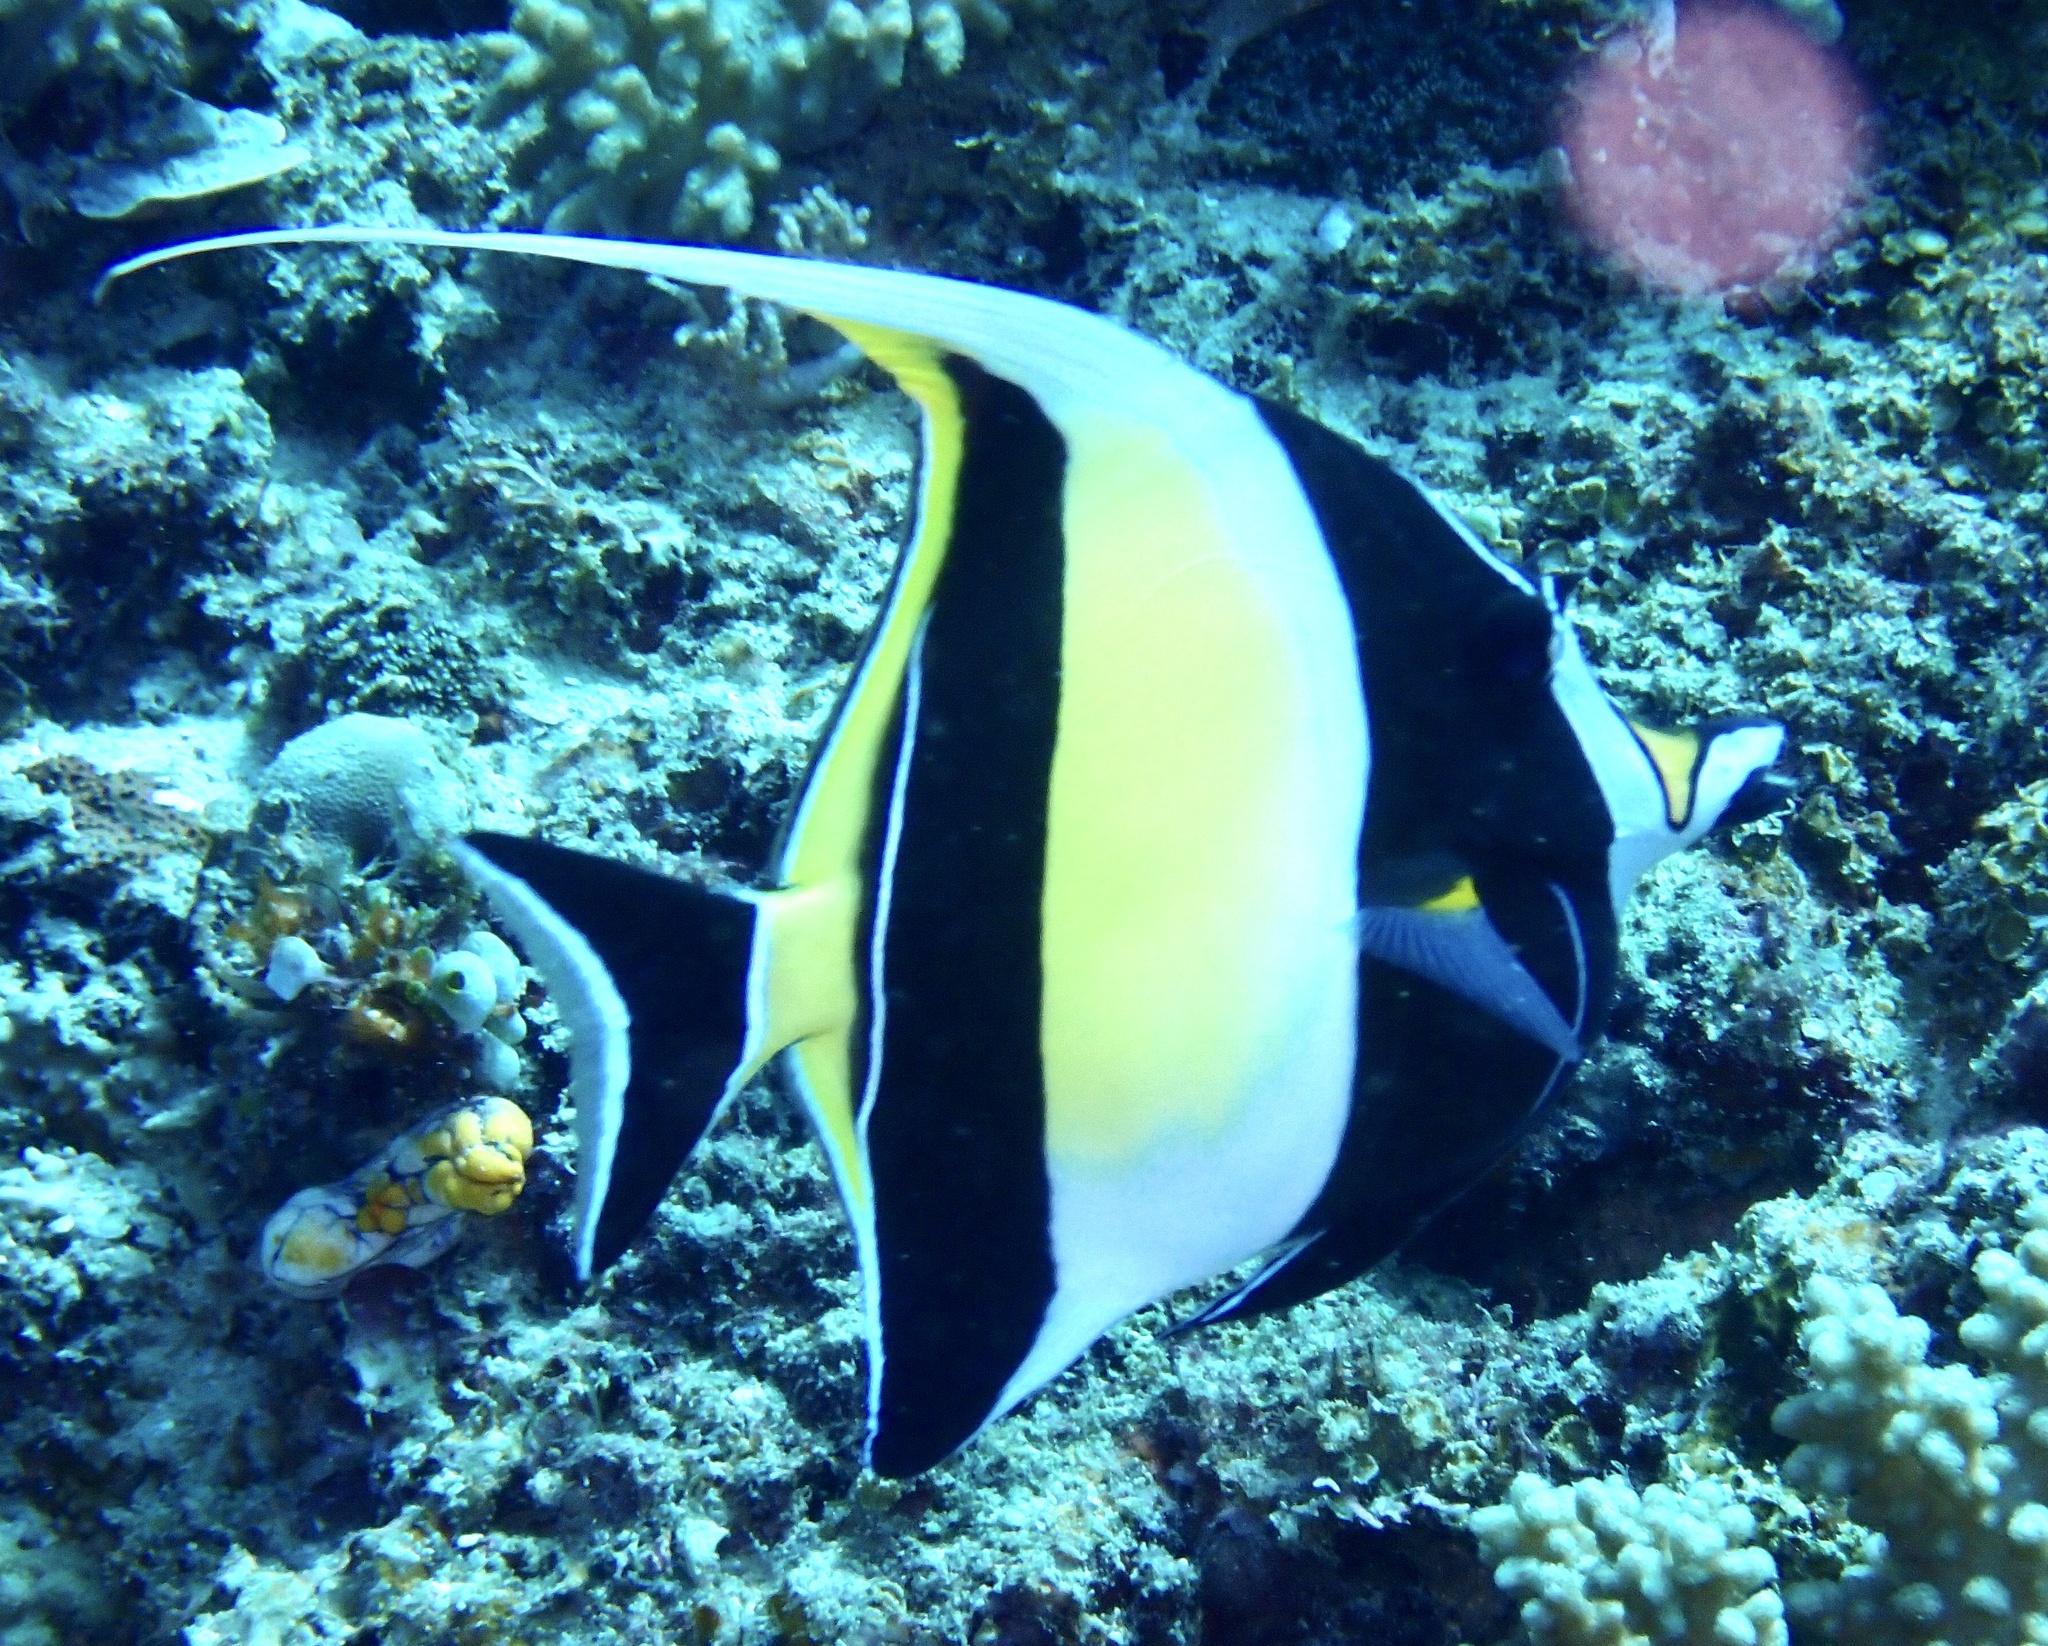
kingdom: Animalia
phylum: Chordata
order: Perciformes
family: Zanclidae
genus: Zanclus
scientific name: Zanclus cornutus
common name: Moorish idol
